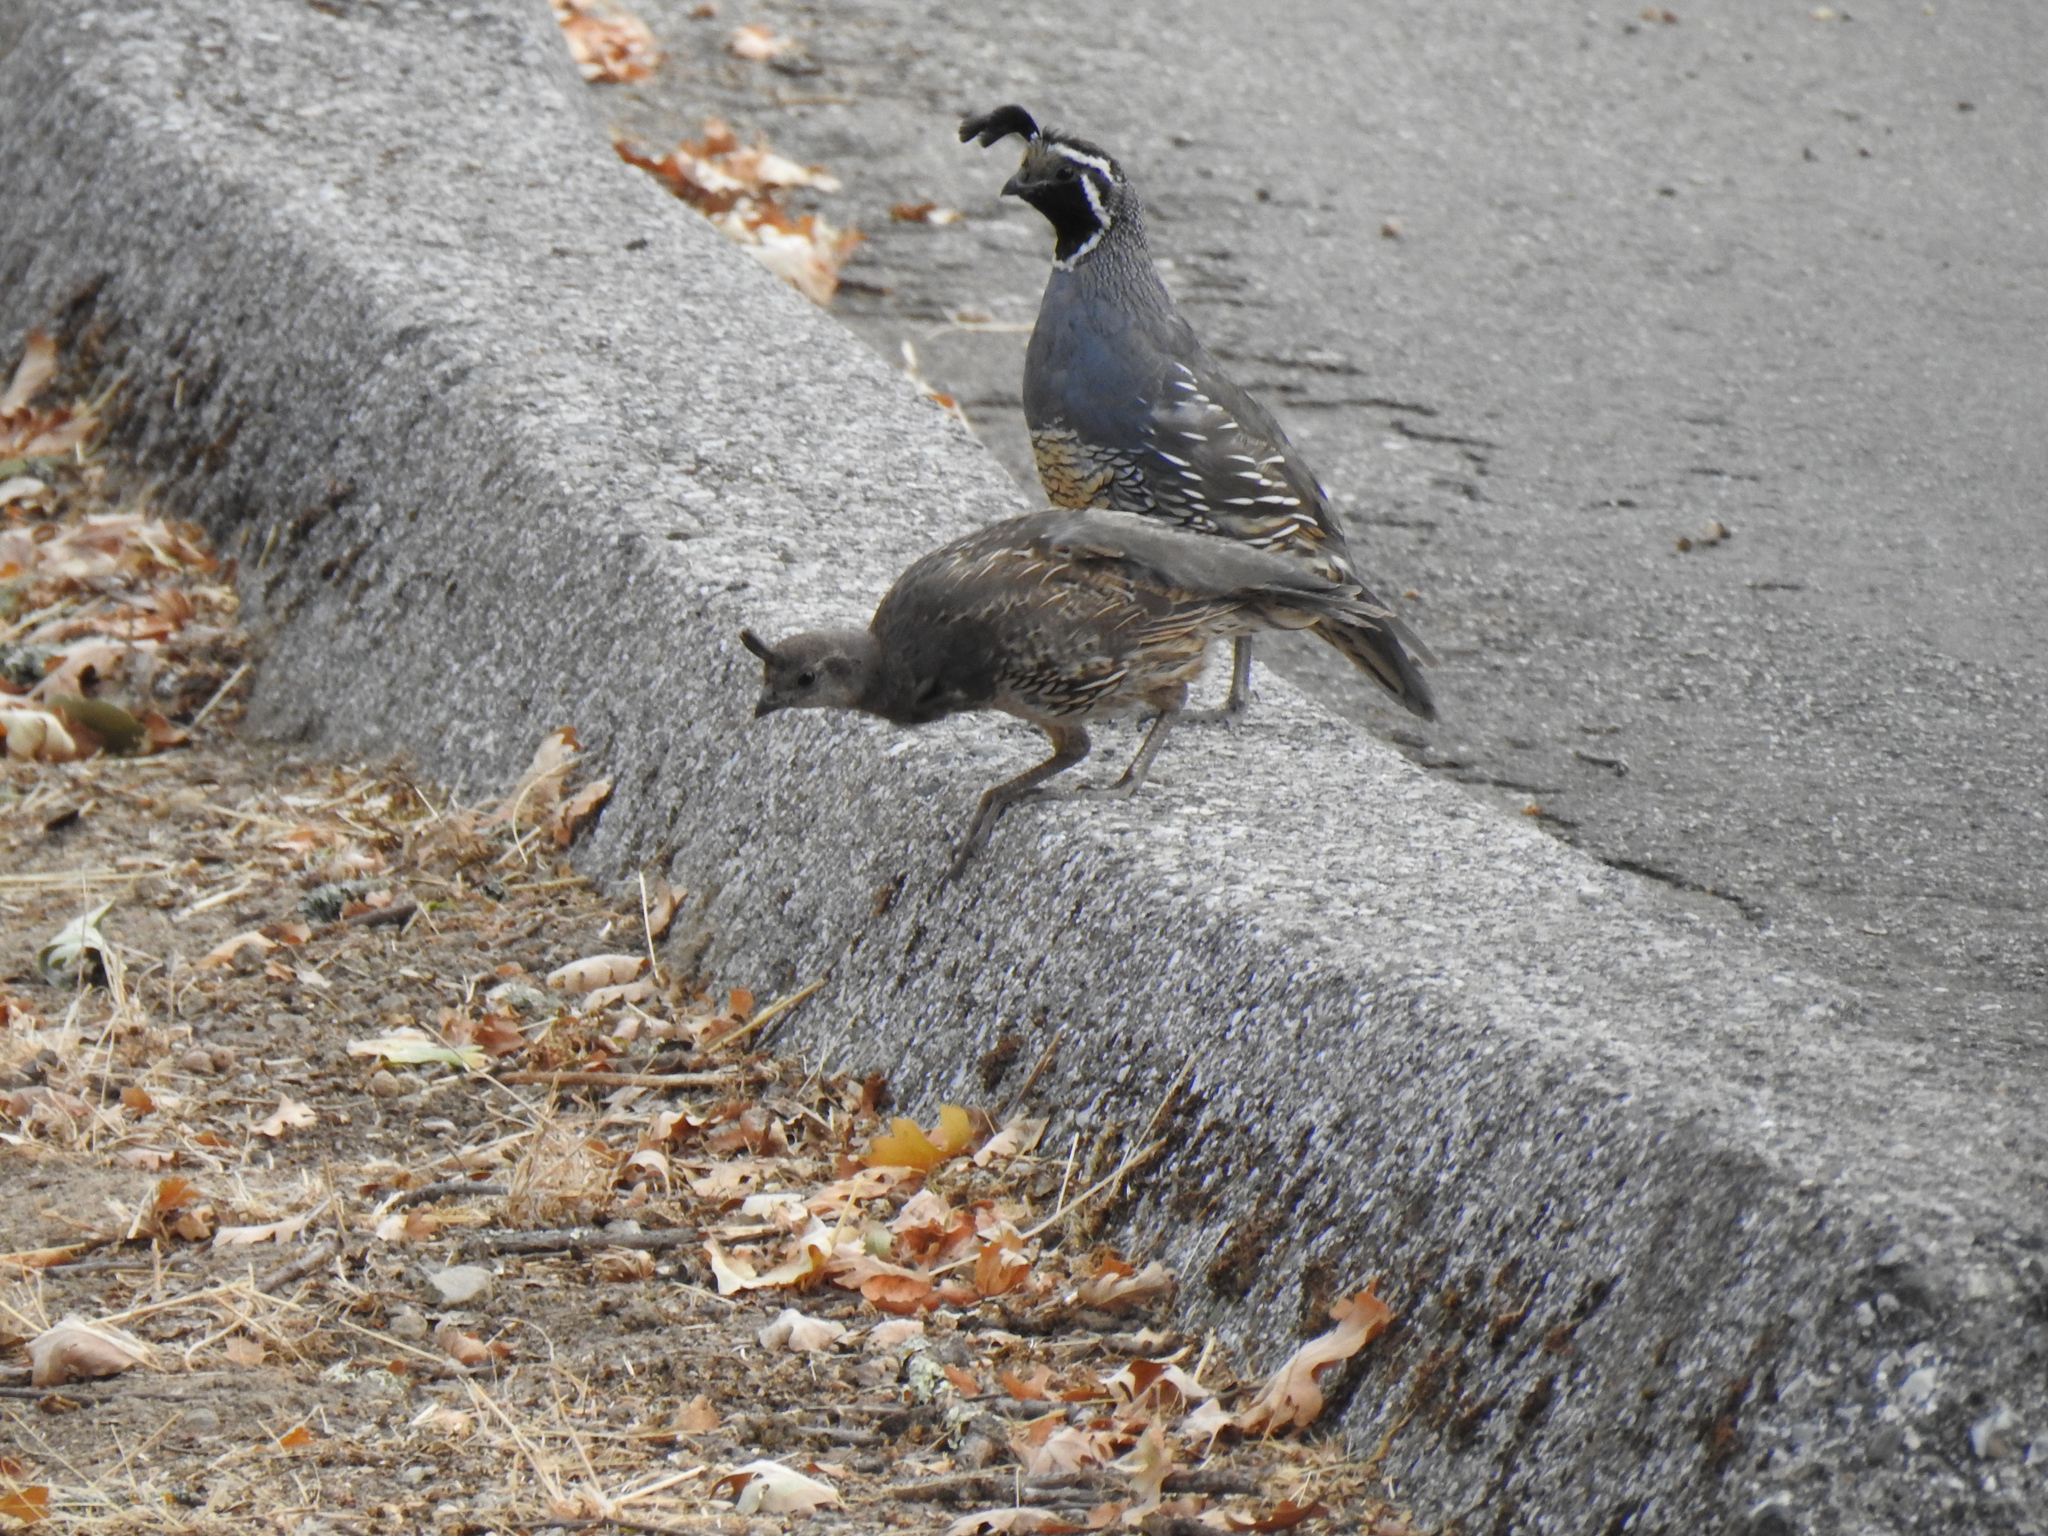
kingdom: Animalia
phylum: Chordata
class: Aves
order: Galliformes
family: Odontophoridae
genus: Callipepla
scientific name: Callipepla californica
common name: California quail
